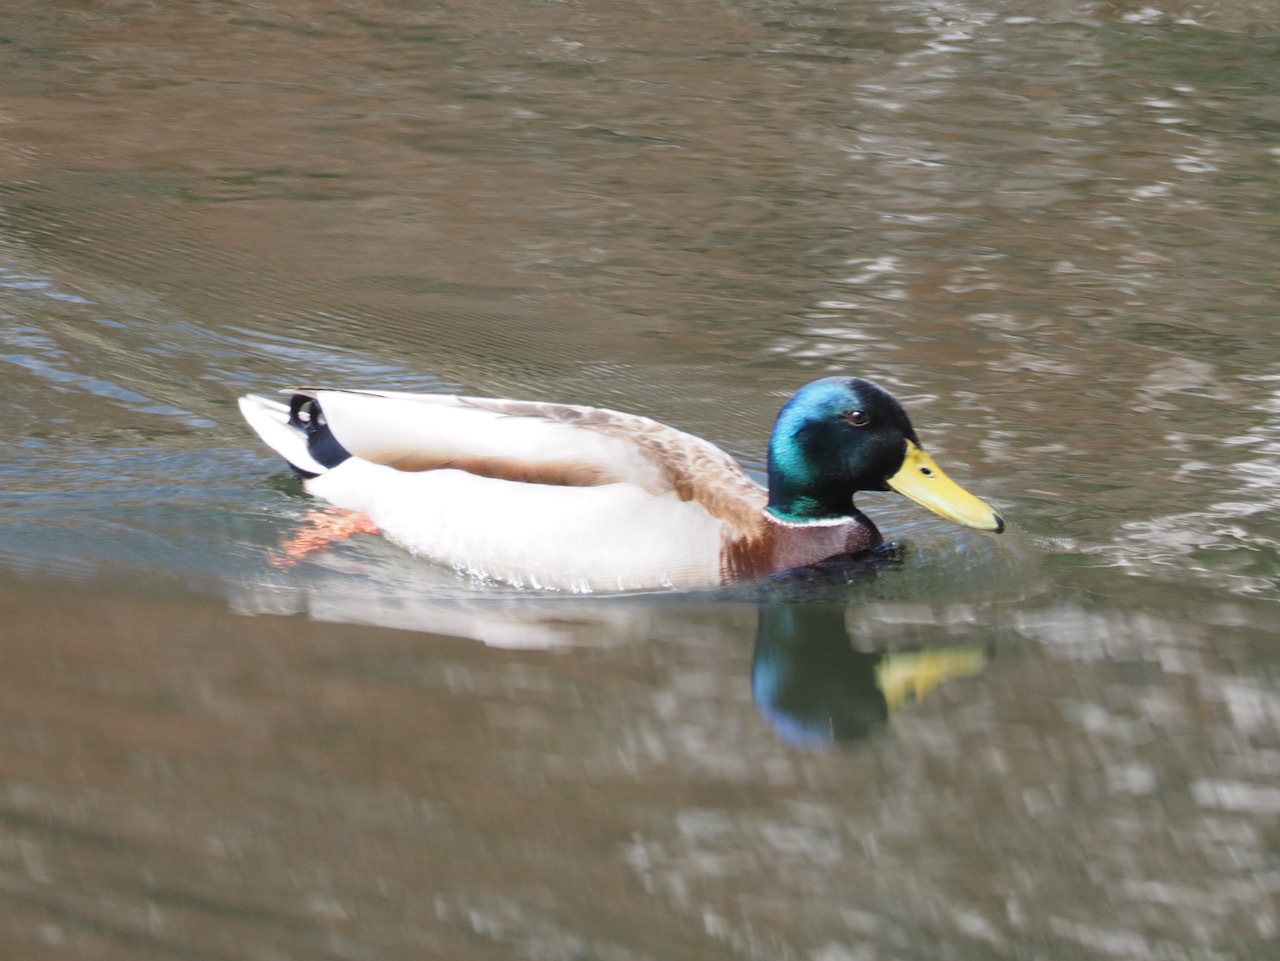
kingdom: Animalia
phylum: Chordata
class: Aves
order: Anseriformes
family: Anatidae
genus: Anas
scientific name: Anas platyrhynchos
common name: Mallard
